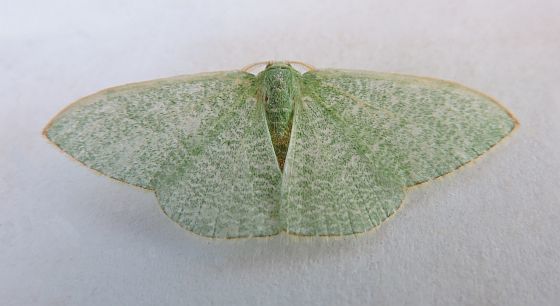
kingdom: Animalia
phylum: Arthropoda
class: Insecta
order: Lepidoptera
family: Geometridae
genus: Nemoria
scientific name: Nemoria strigataria
